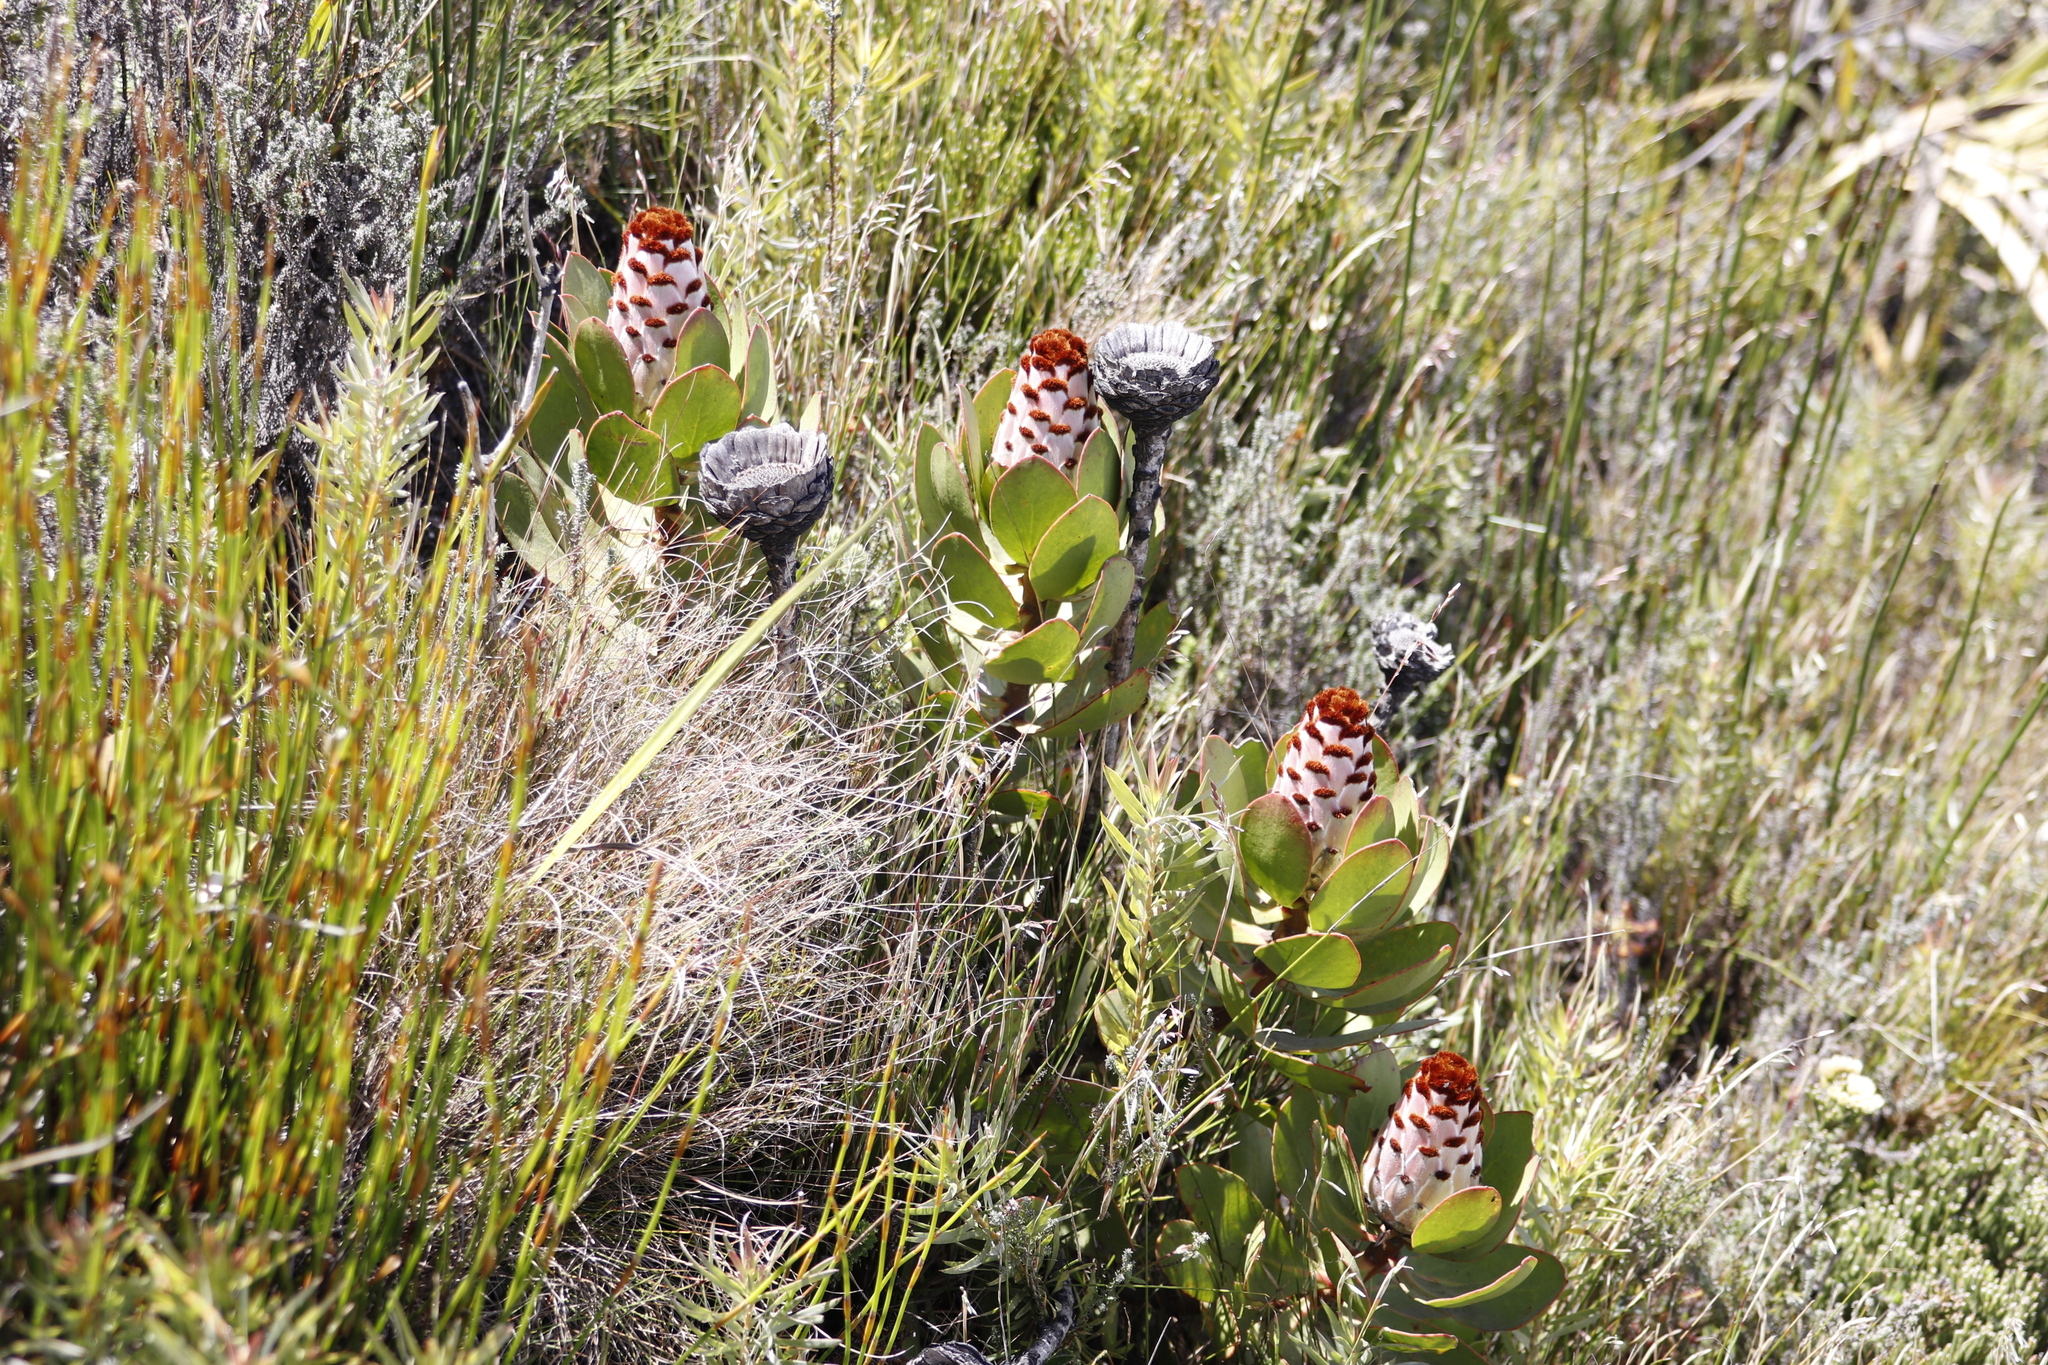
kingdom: Plantae
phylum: Tracheophyta
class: Magnoliopsida
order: Proteales
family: Proteaceae
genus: Protea
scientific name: Protea speciosa
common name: Brown-beard sugarbush
